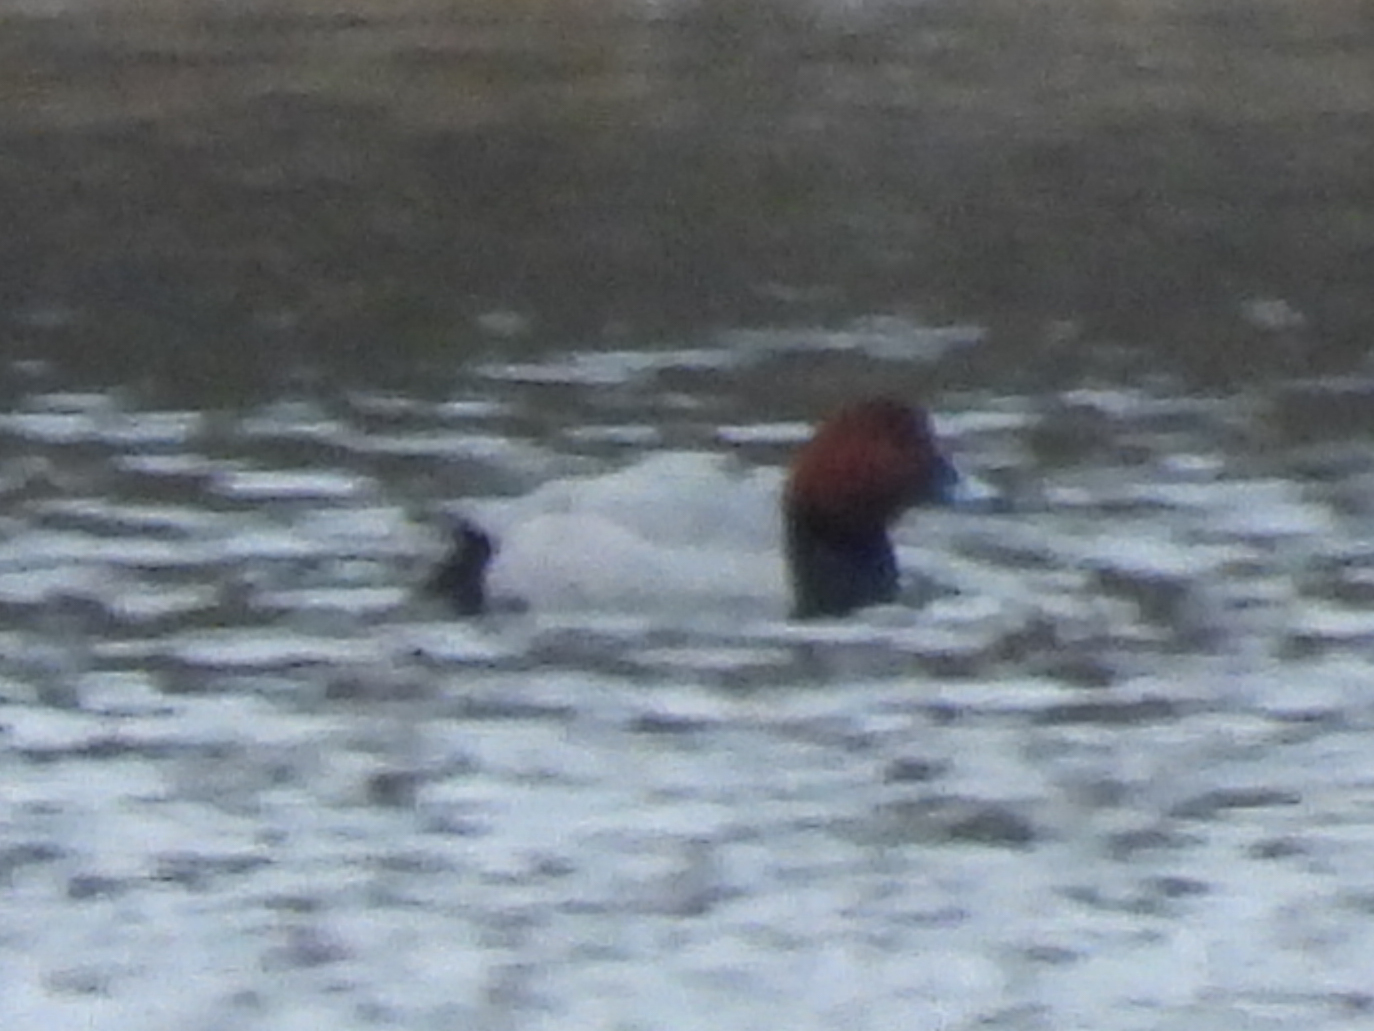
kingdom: Animalia
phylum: Chordata
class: Aves
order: Anseriformes
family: Anatidae
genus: Aythya
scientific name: Aythya ferina
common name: Common pochard
